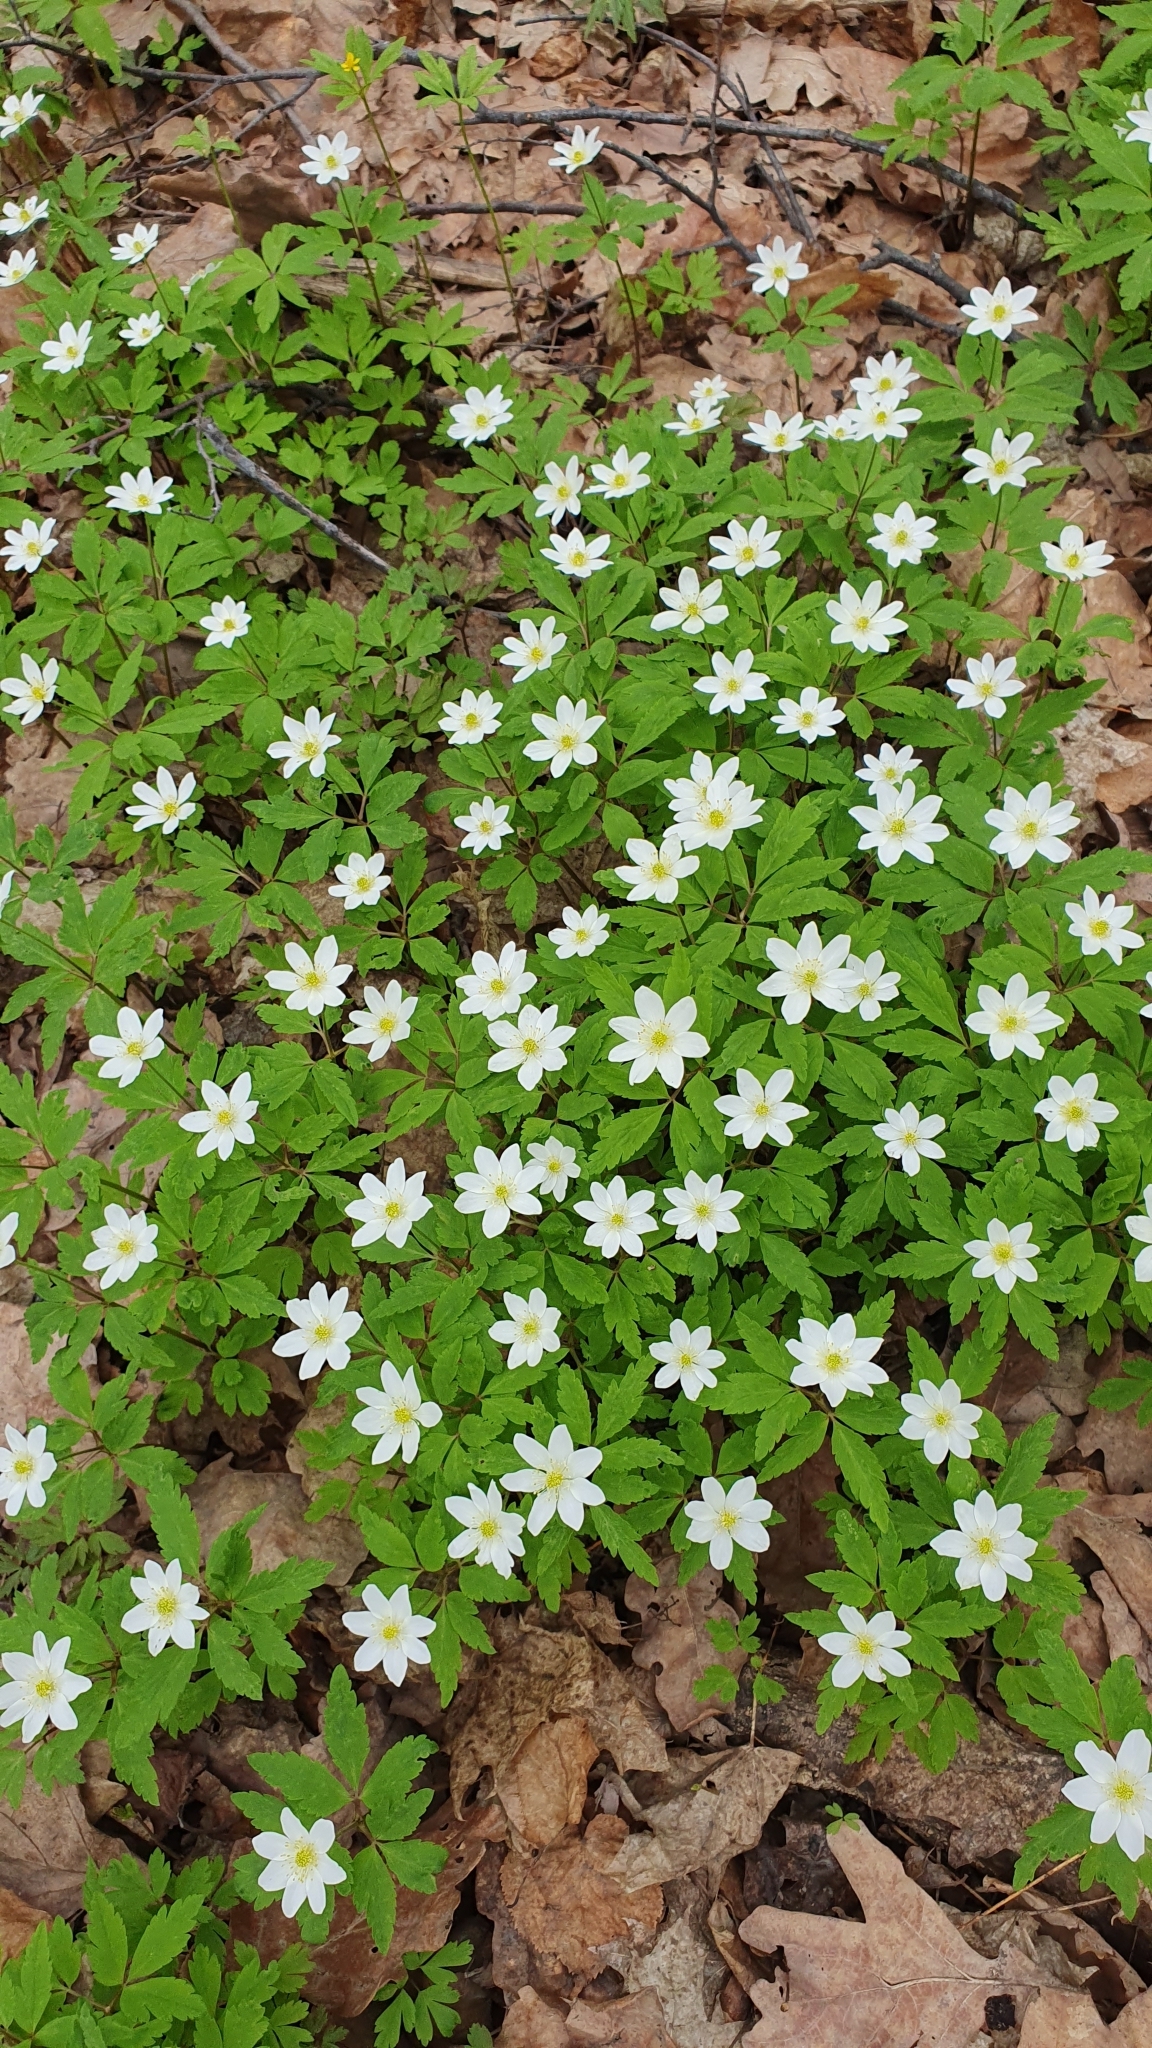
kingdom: Plantae
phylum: Tracheophyta
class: Magnoliopsida
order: Ranunculales
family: Ranunculaceae
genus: Anemone
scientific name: Anemone altaica
